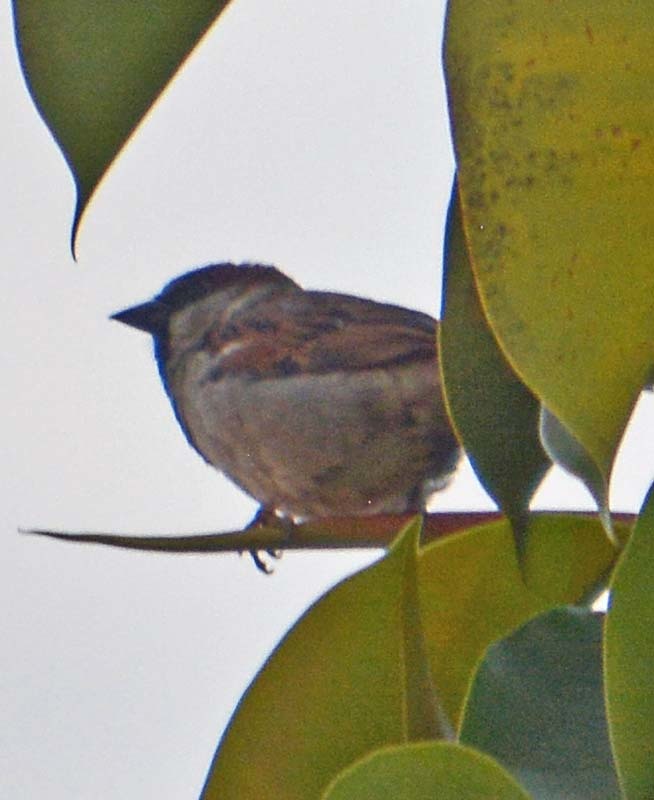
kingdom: Animalia
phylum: Chordata
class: Aves
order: Passeriformes
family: Passeridae
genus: Passer
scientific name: Passer domesticus
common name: House sparrow
